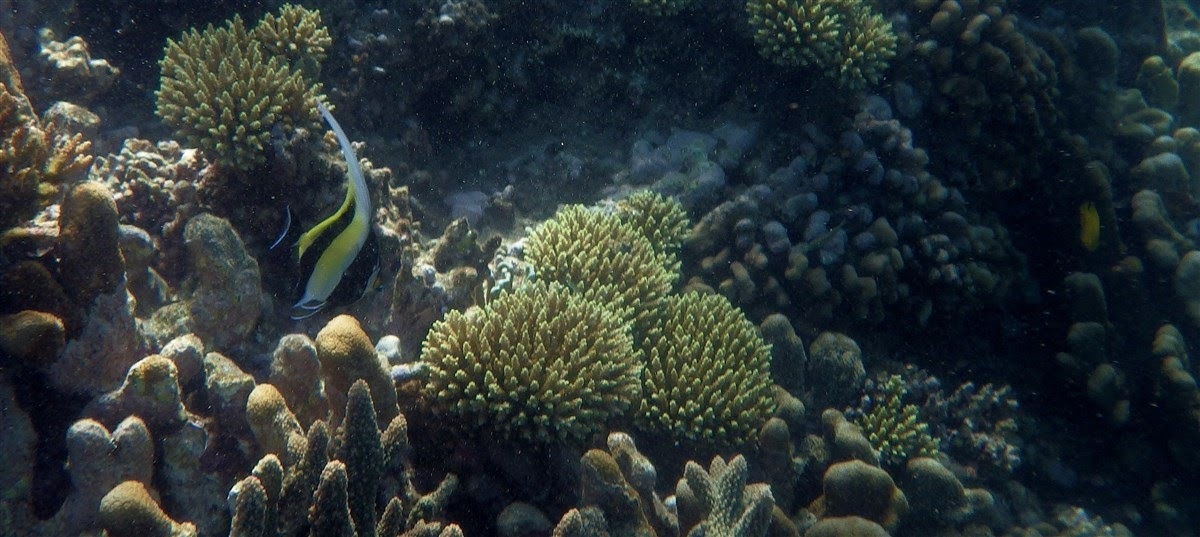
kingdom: Animalia
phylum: Chordata
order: Perciformes
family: Zanclidae
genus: Zanclus
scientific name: Zanclus cornutus
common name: Moorish idol
